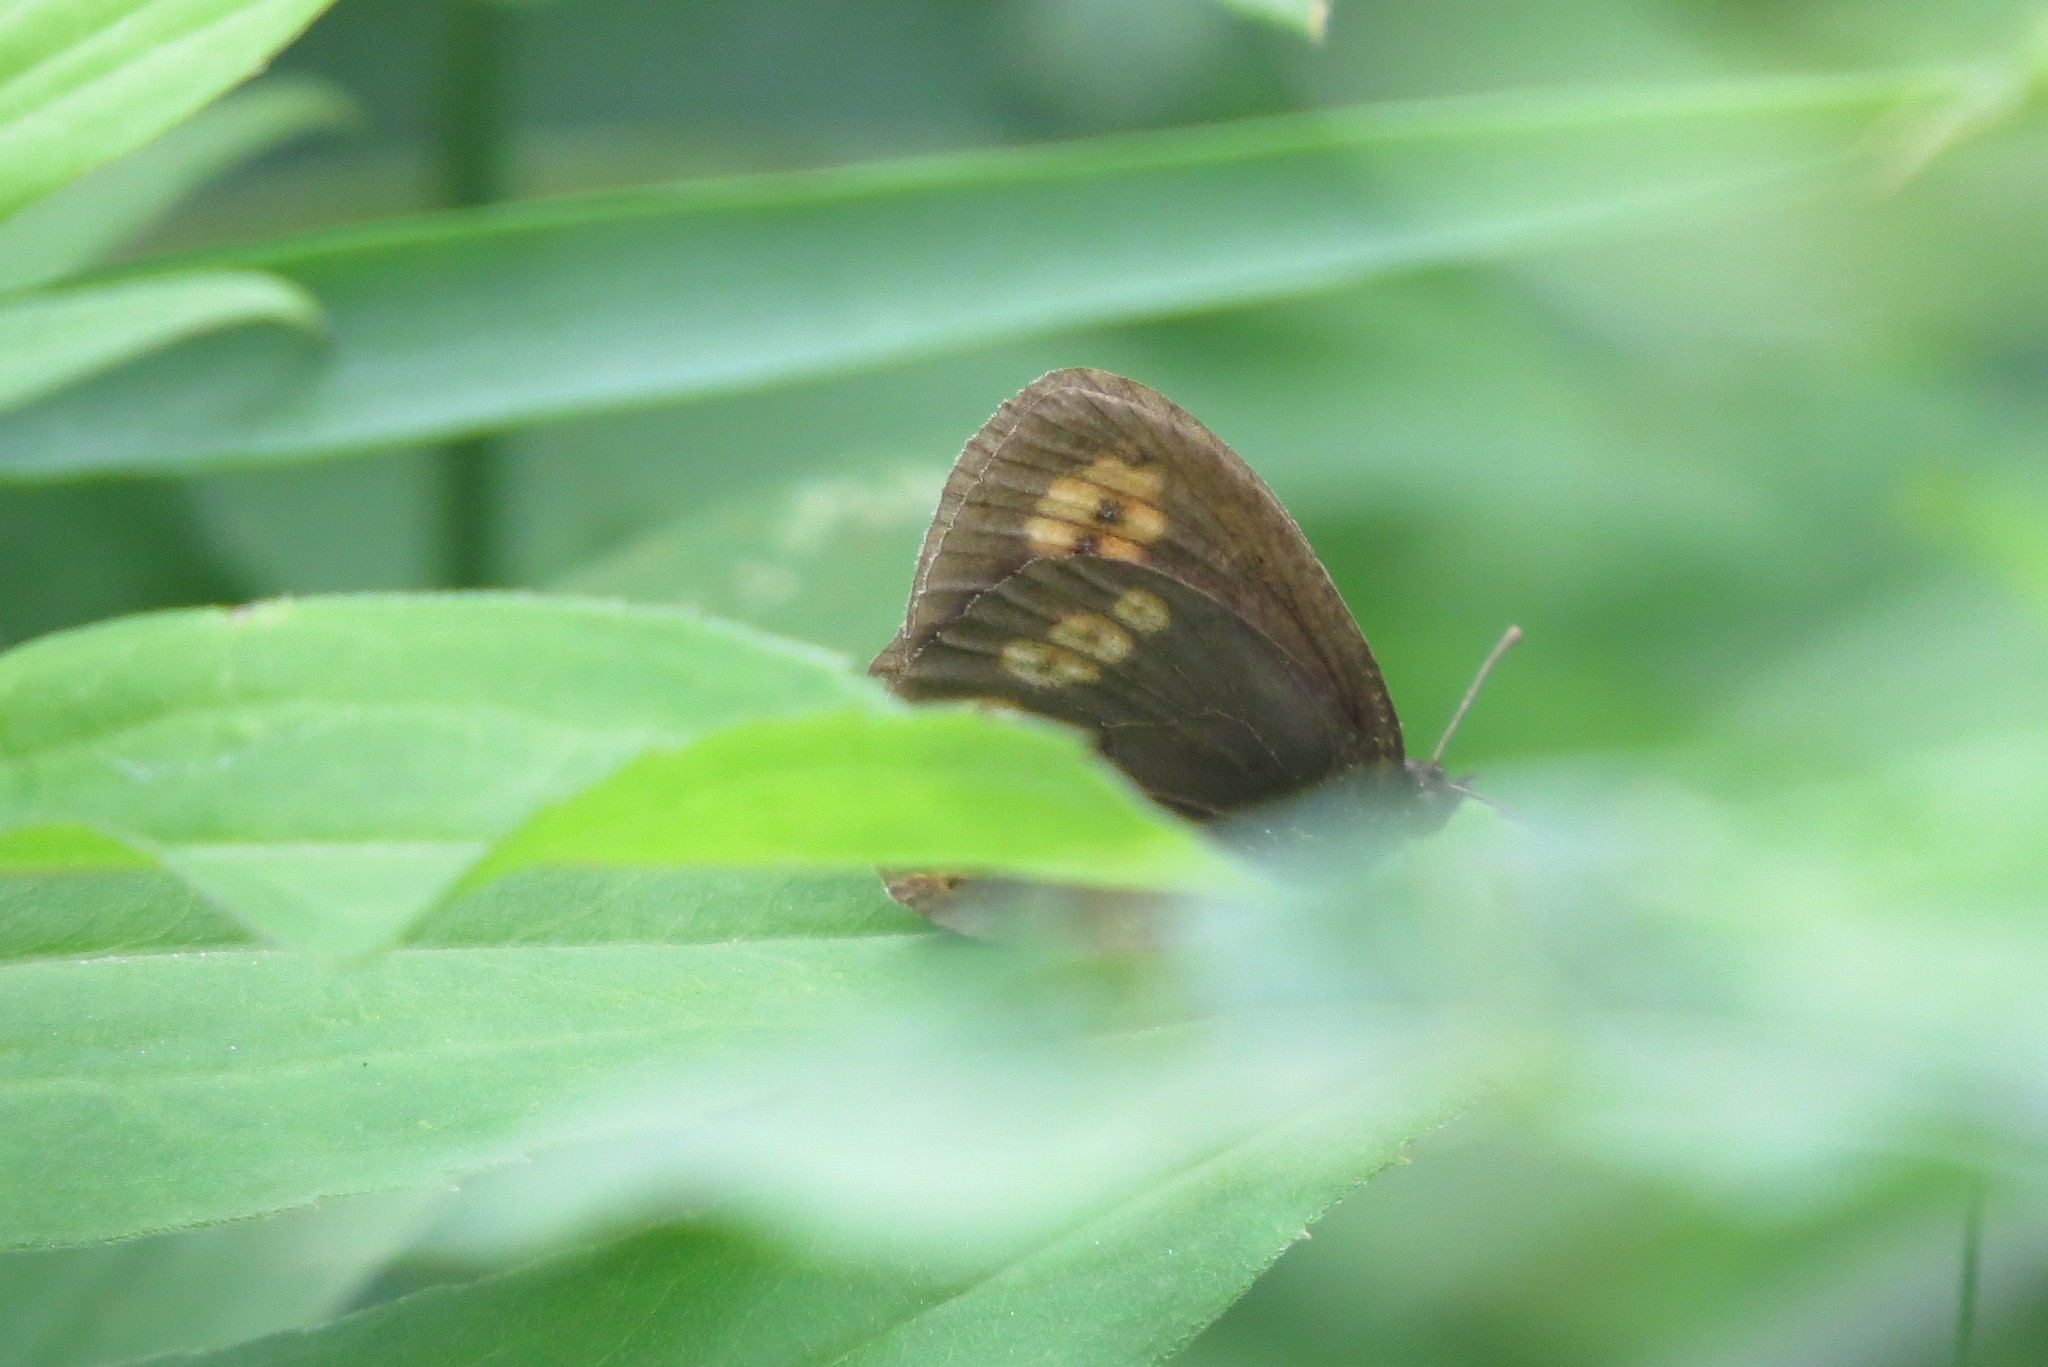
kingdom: Animalia
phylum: Arthropoda
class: Insecta
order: Lepidoptera
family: Nymphalidae
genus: Erebia
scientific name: Erebia alberganus
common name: Almond-eyed ringlet
